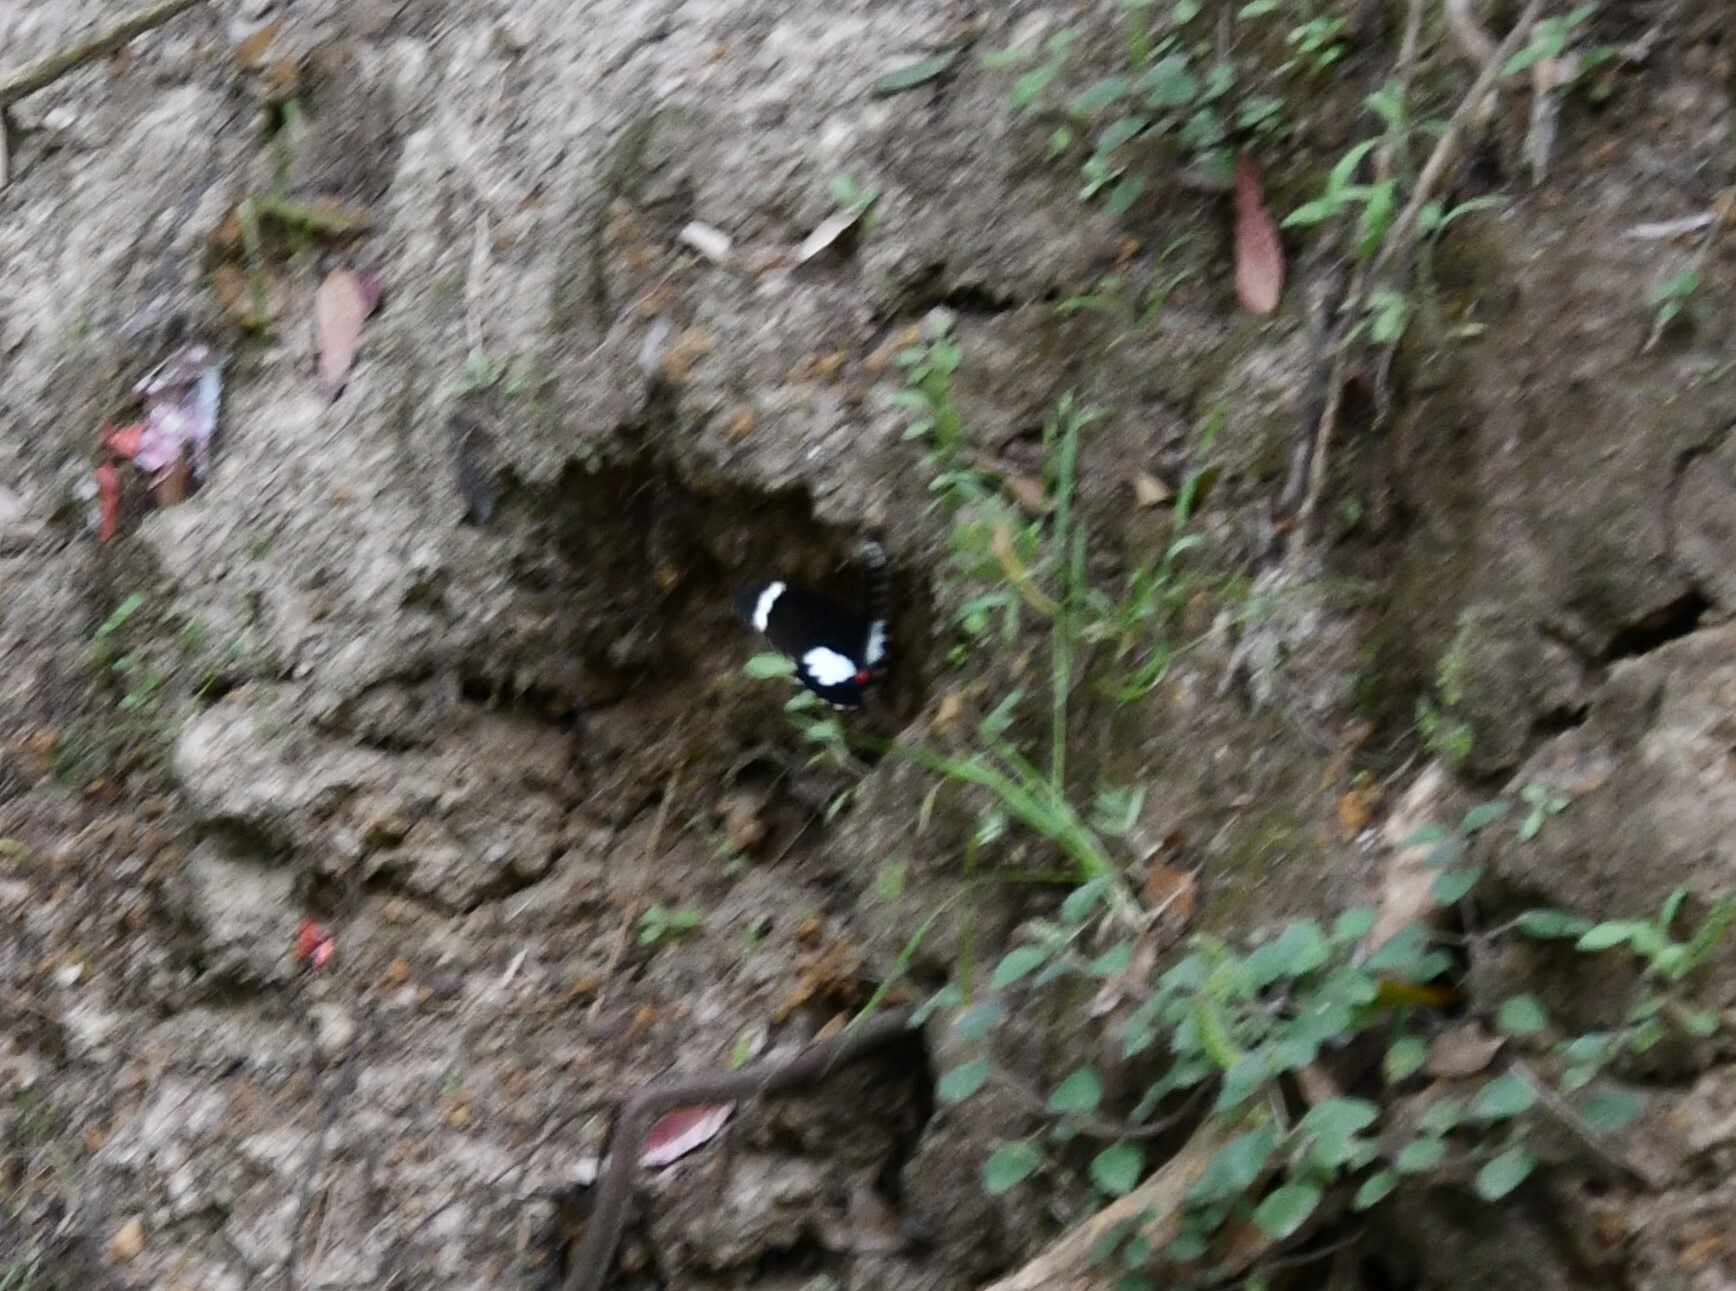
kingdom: Animalia
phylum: Arthropoda
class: Insecta
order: Lepidoptera
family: Papilionidae
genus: Papilio
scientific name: Papilio aegeus
